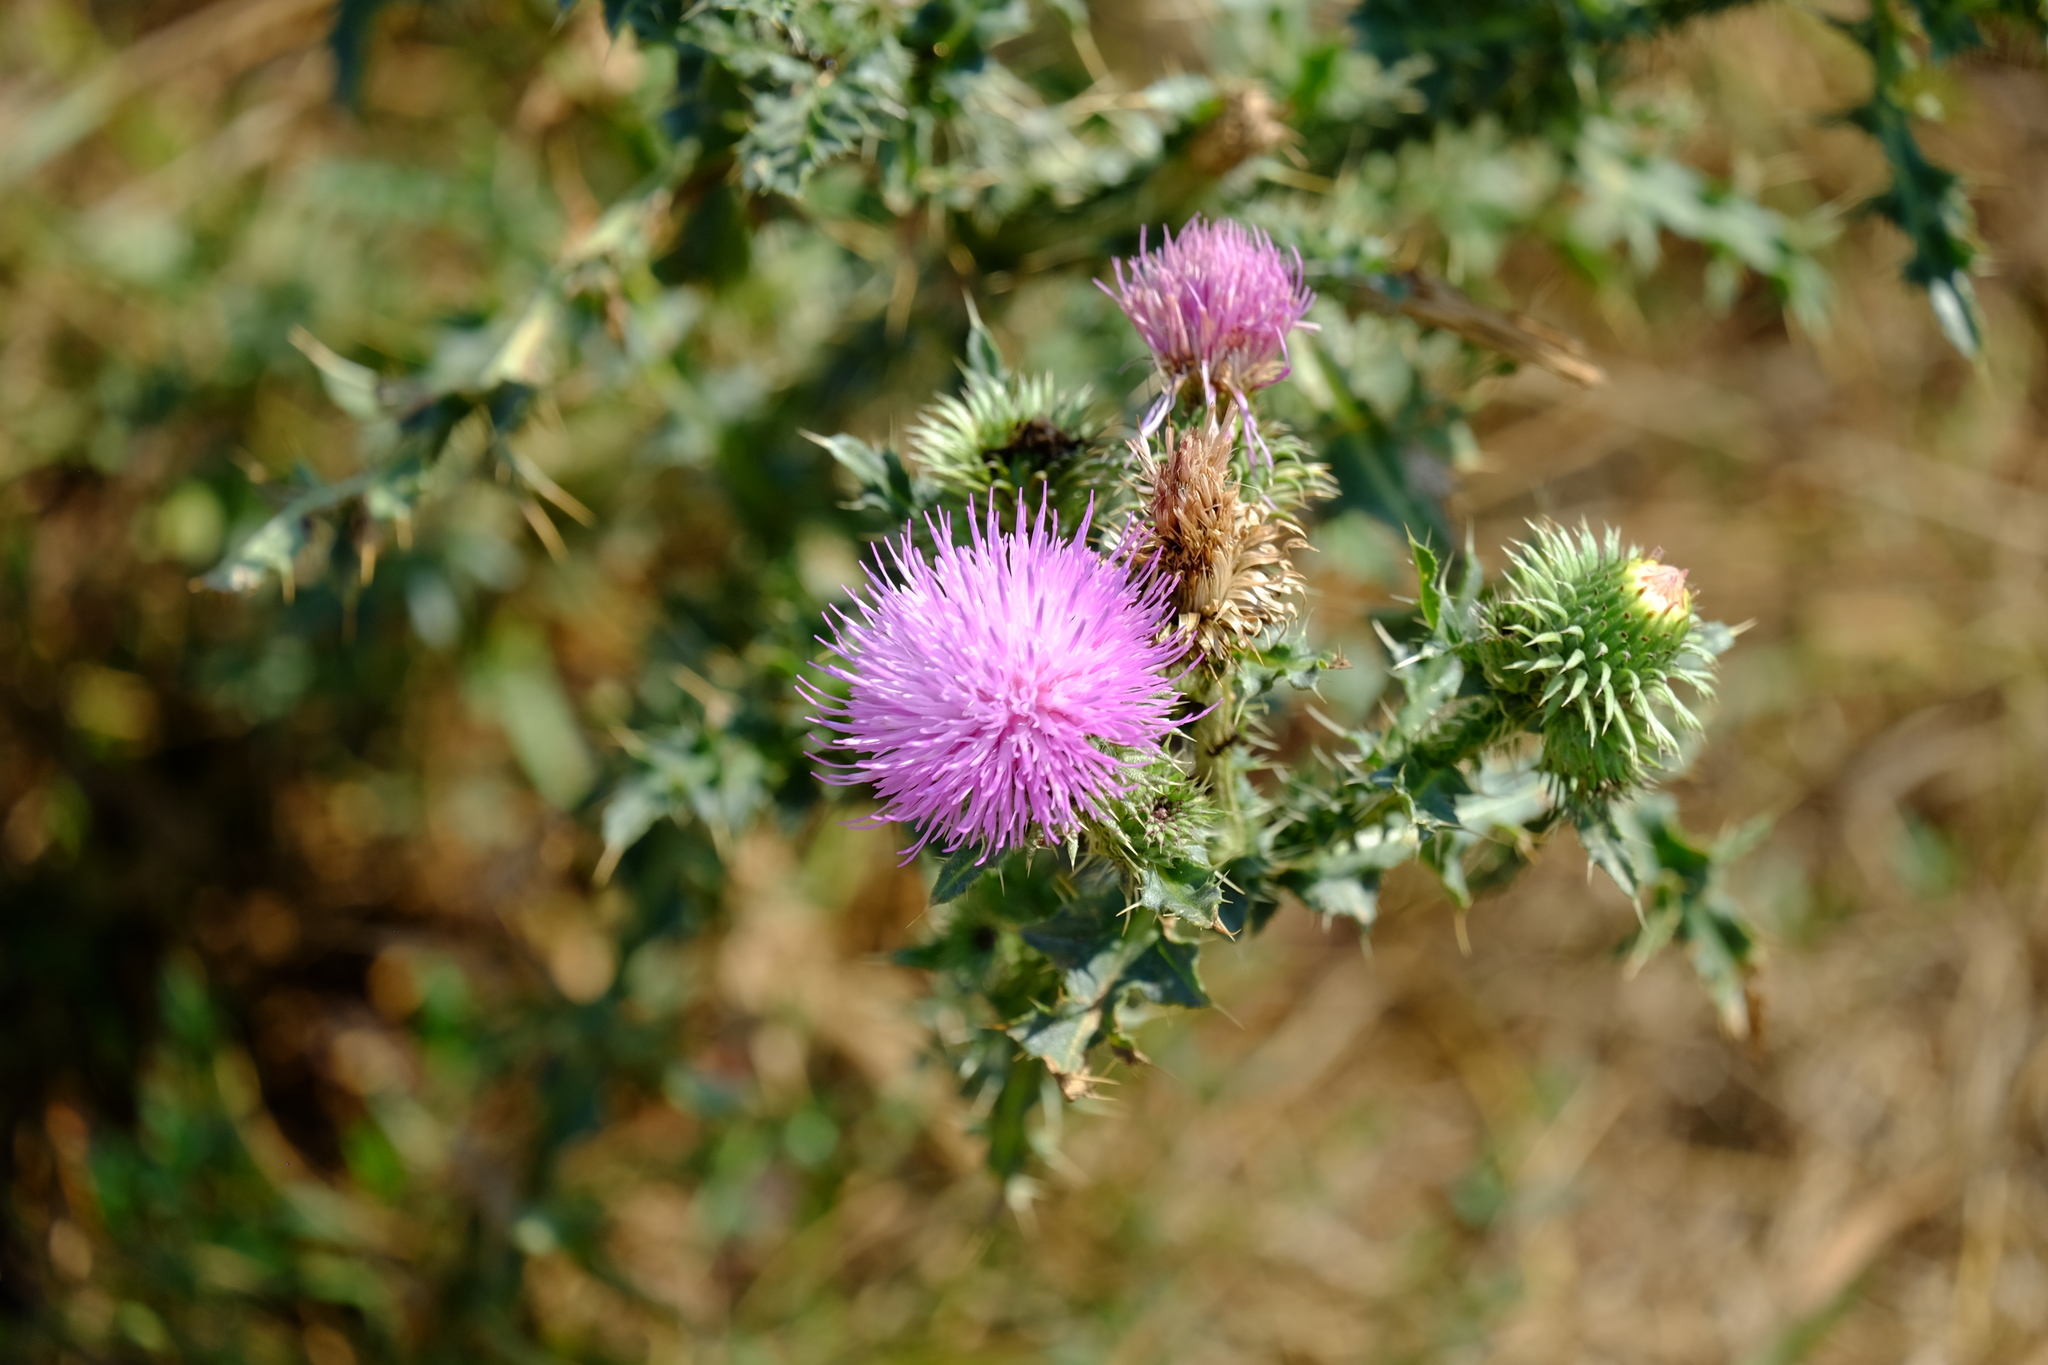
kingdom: Plantae
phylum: Tracheophyta
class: Magnoliopsida
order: Asterales
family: Asteraceae
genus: Carduus
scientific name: Carduus acanthoides
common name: Plumeless thistle
